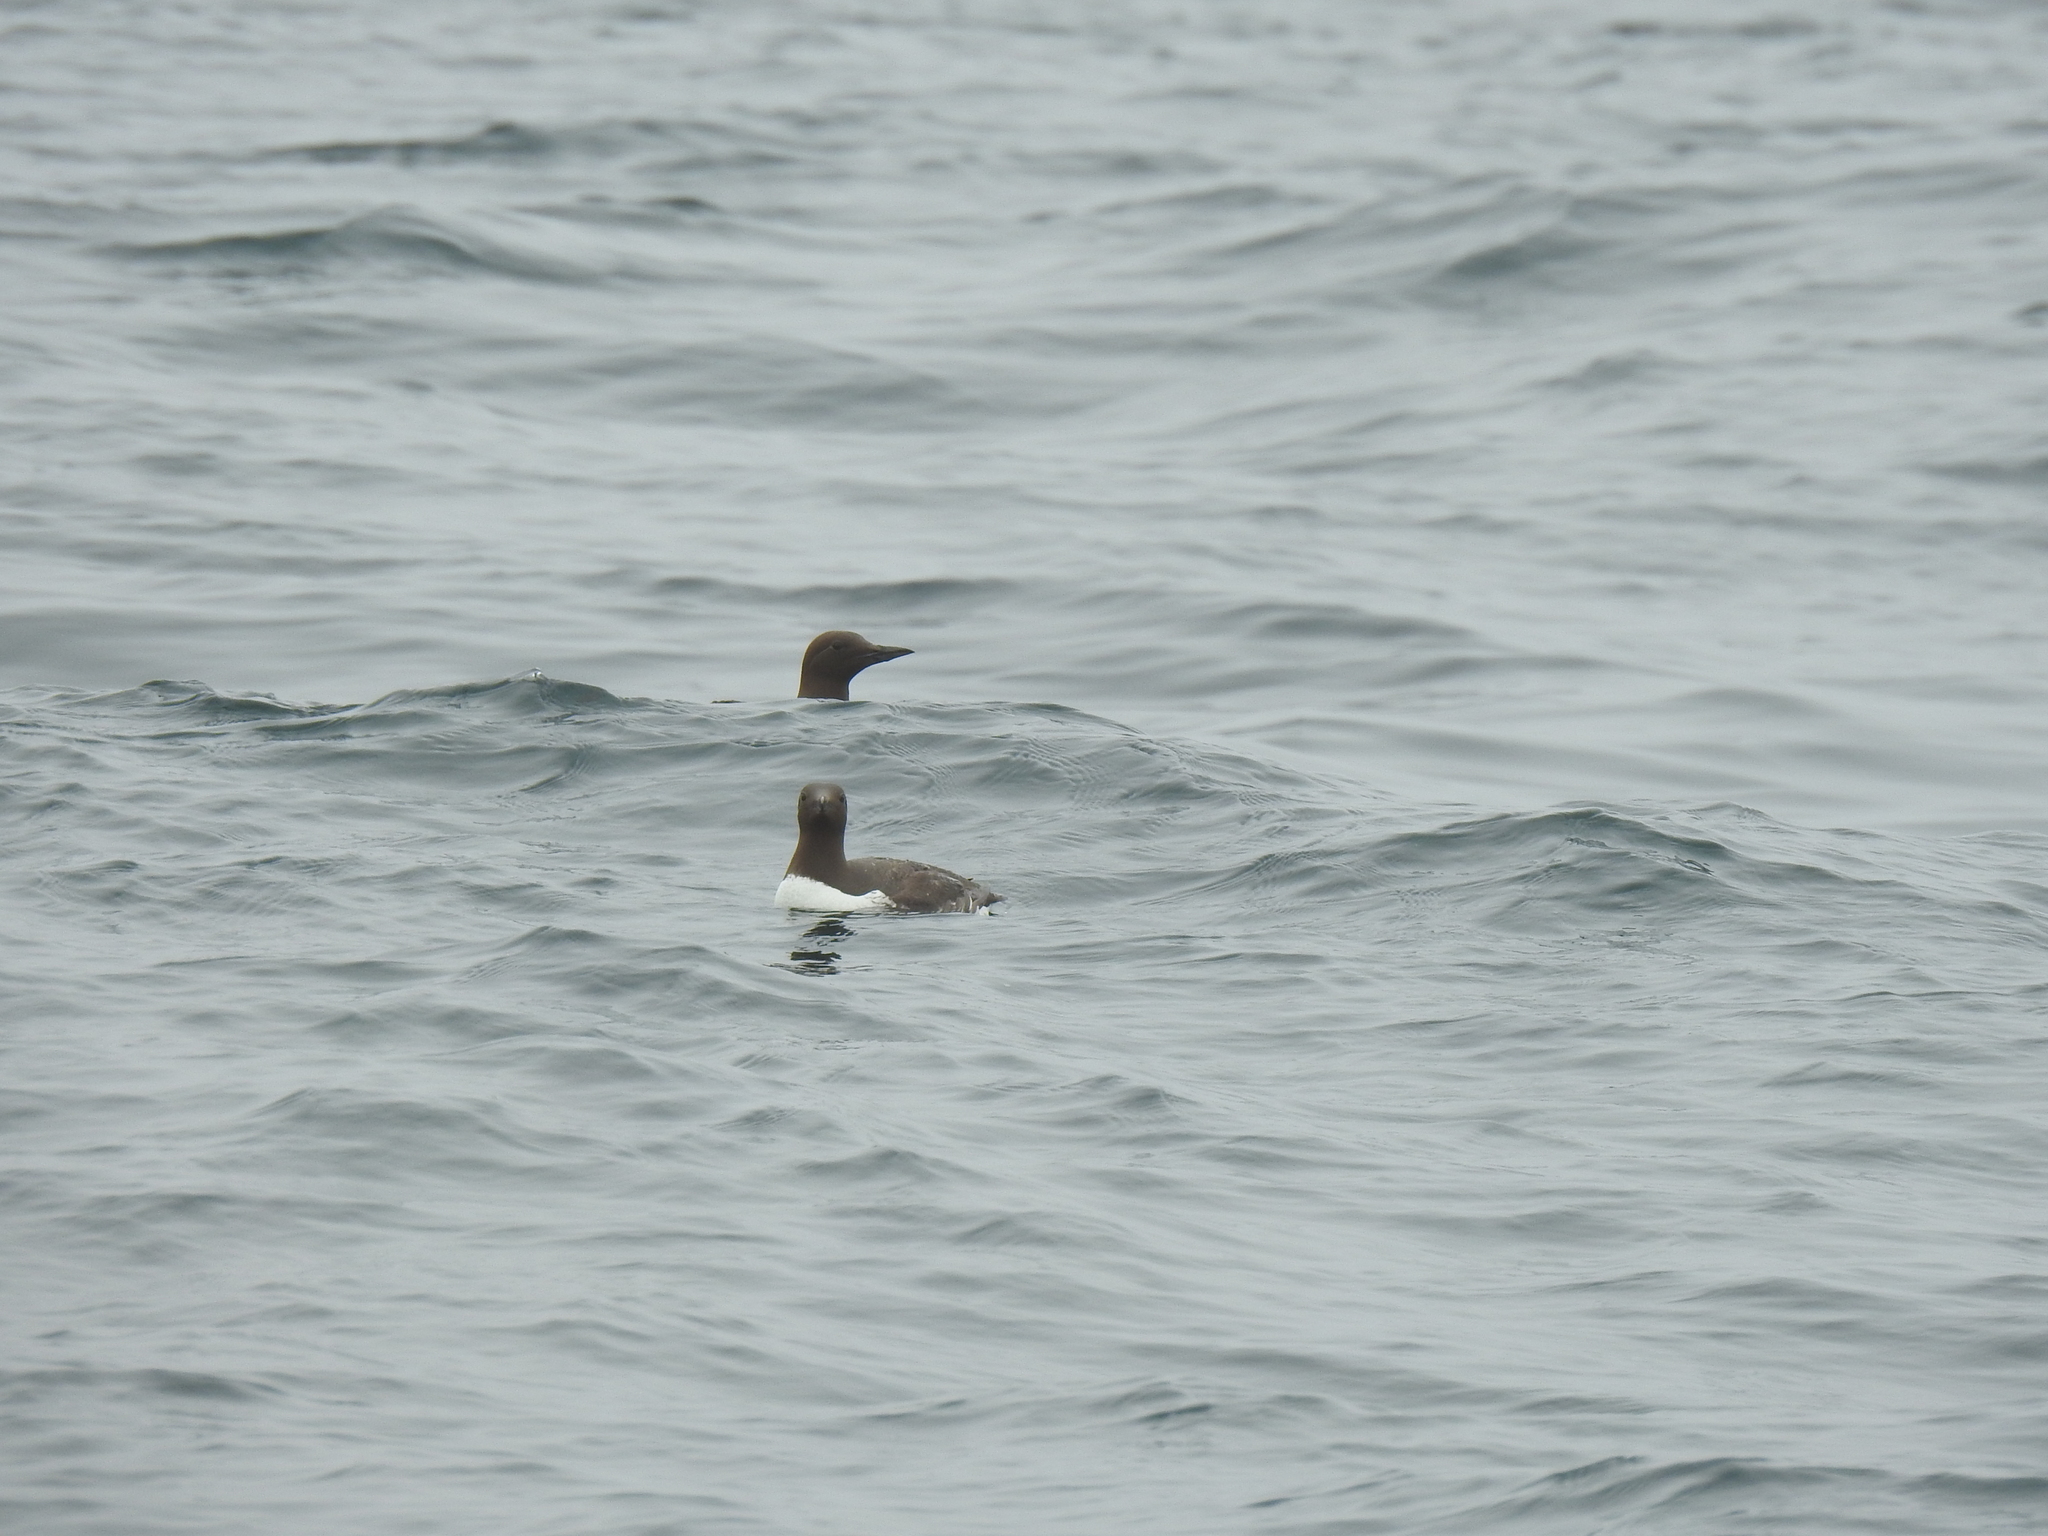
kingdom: Animalia
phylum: Chordata
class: Aves
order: Charadriiformes
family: Alcidae
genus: Uria
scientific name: Uria aalge
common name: Common murre
